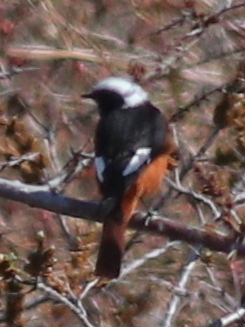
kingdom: Animalia
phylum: Chordata
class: Aves
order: Passeriformes
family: Muscicapidae
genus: Phoenicurus
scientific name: Phoenicurus erythrogastrus
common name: Güldenstädt's redstart
